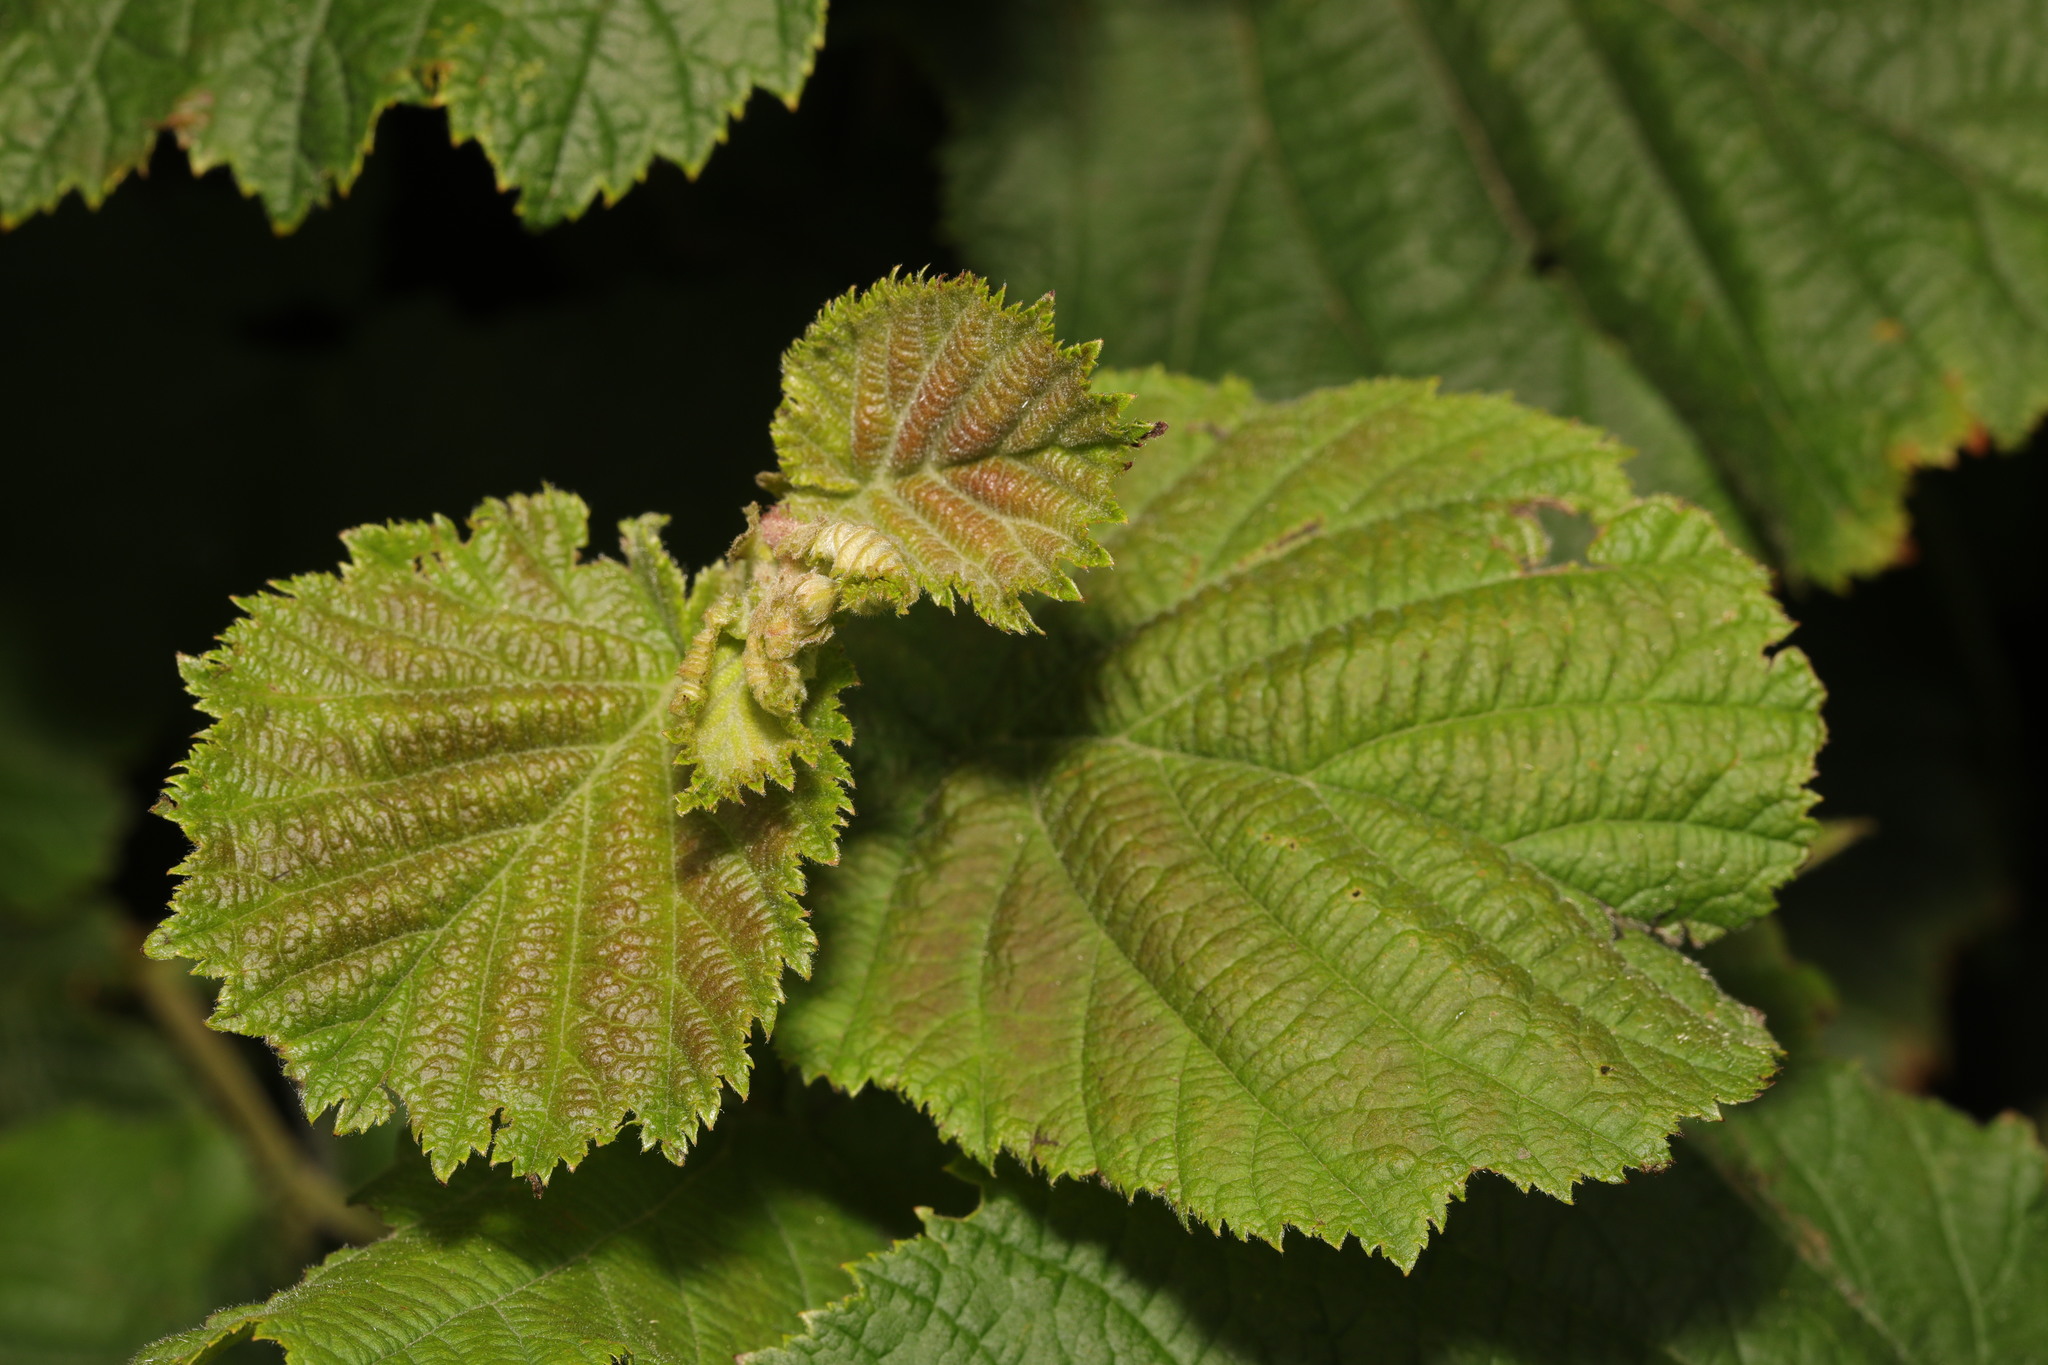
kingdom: Plantae
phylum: Tracheophyta
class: Magnoliopsida
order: Fagales
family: Betulaceae
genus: Corylus
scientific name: Corylus avellana
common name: European hazel
